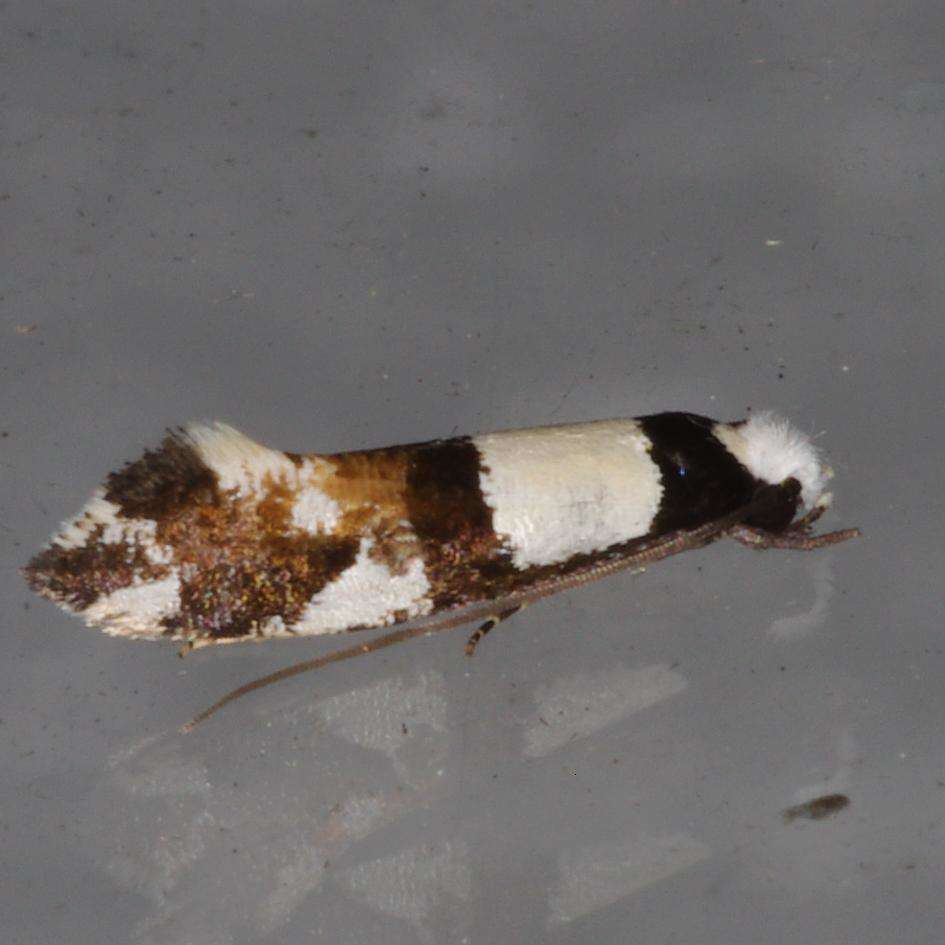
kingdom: Animalia
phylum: Arthropoda
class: Insecta
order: Lepidoptera
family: Tineidae
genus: Monopis
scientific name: Monopis icterogastra
